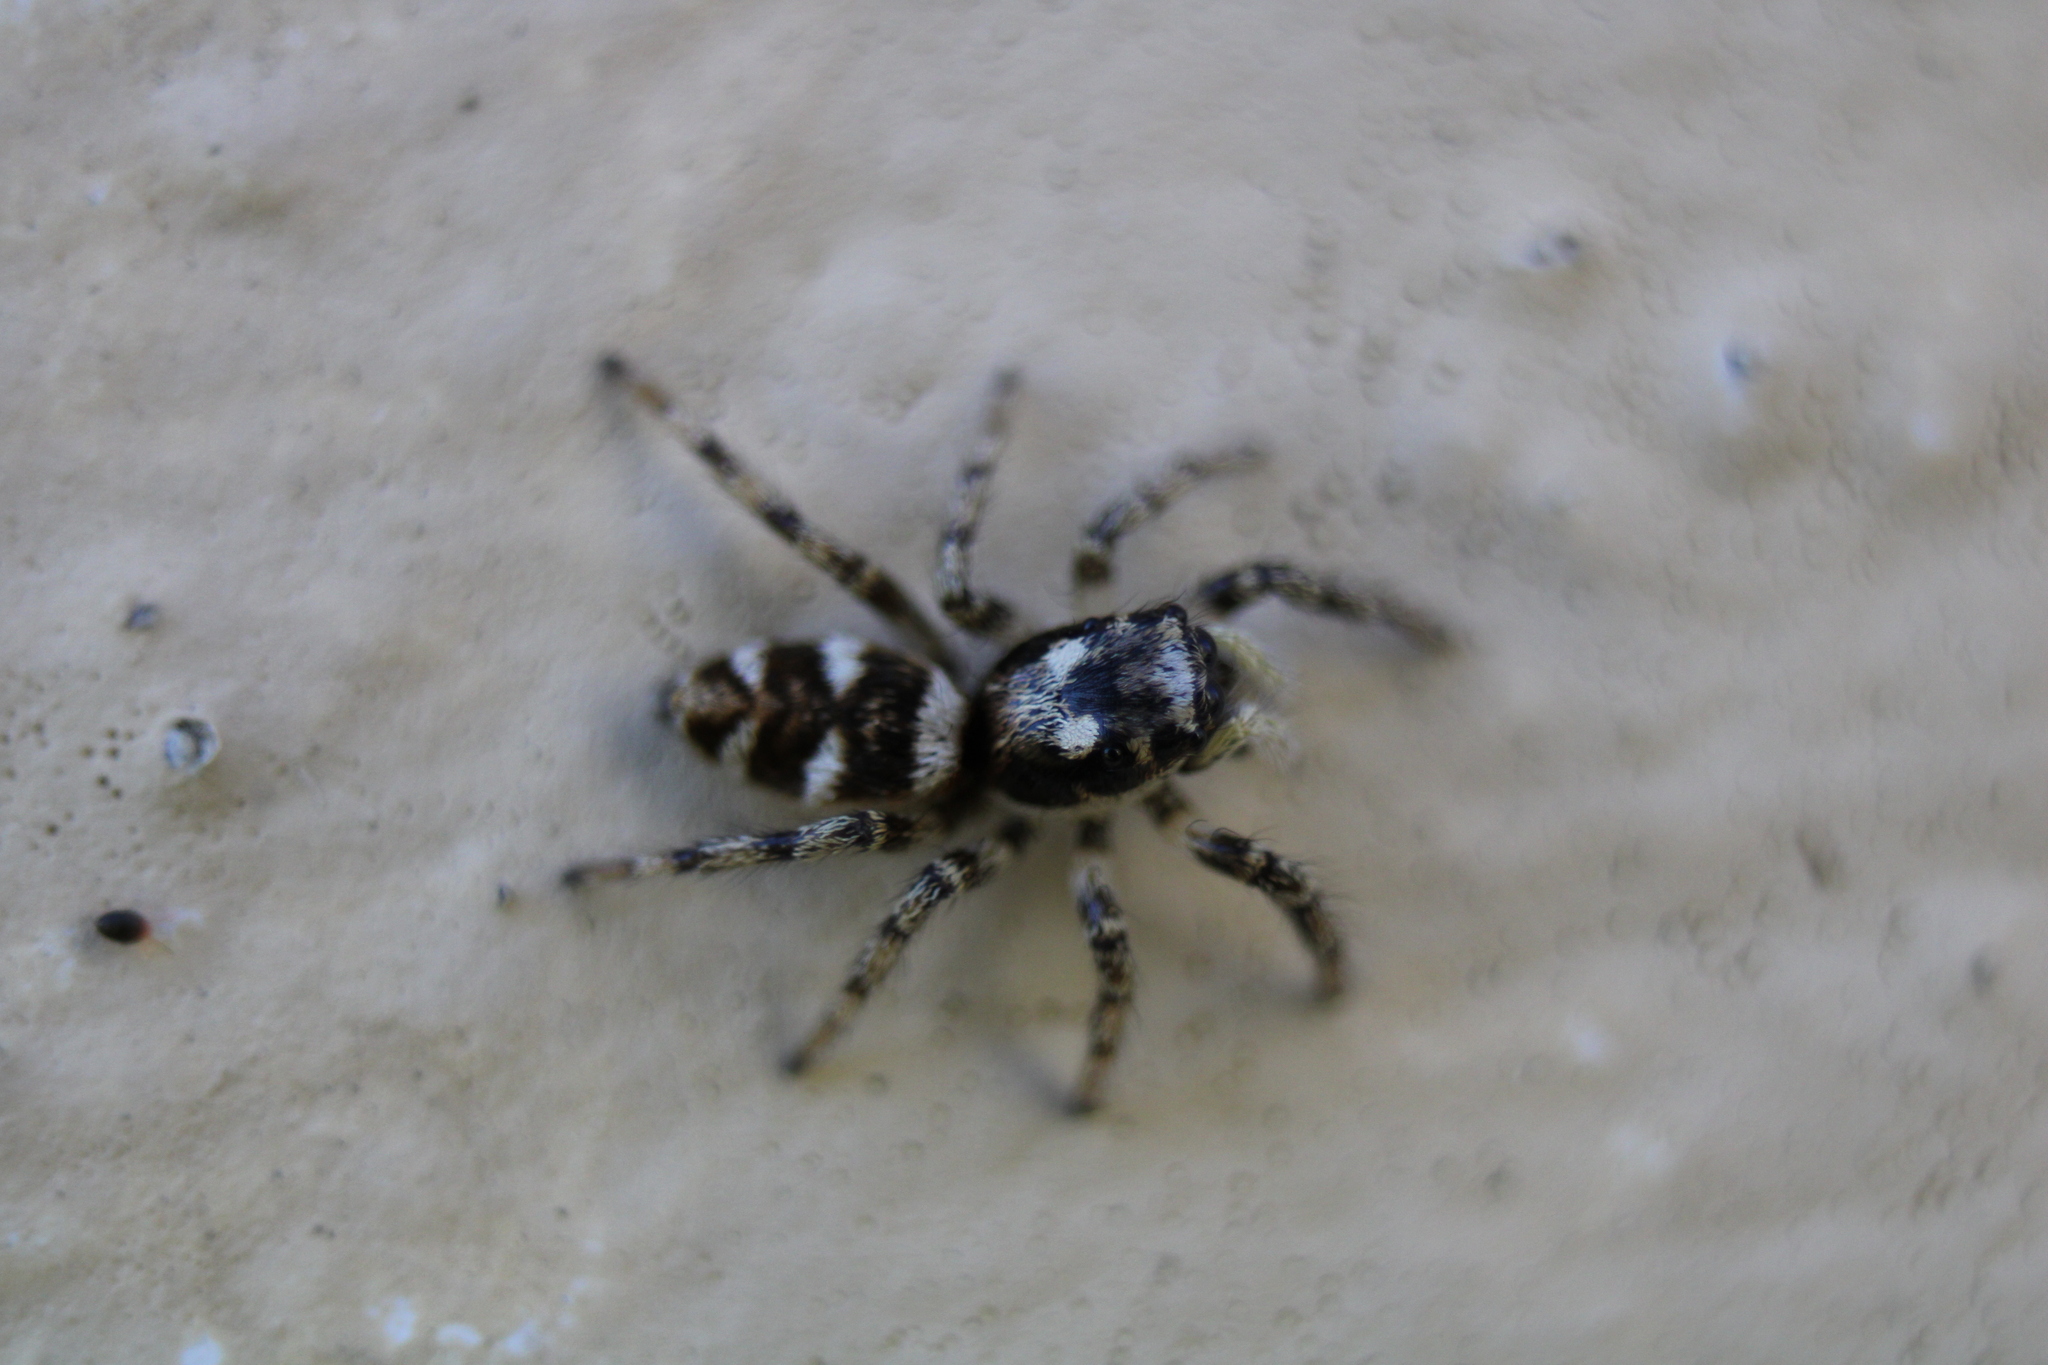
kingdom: Animalia
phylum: Arthropoda
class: Arachnida
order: Araneae
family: Salticidae
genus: Salticus
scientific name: Salticus scenicus
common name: Zebra jumper
